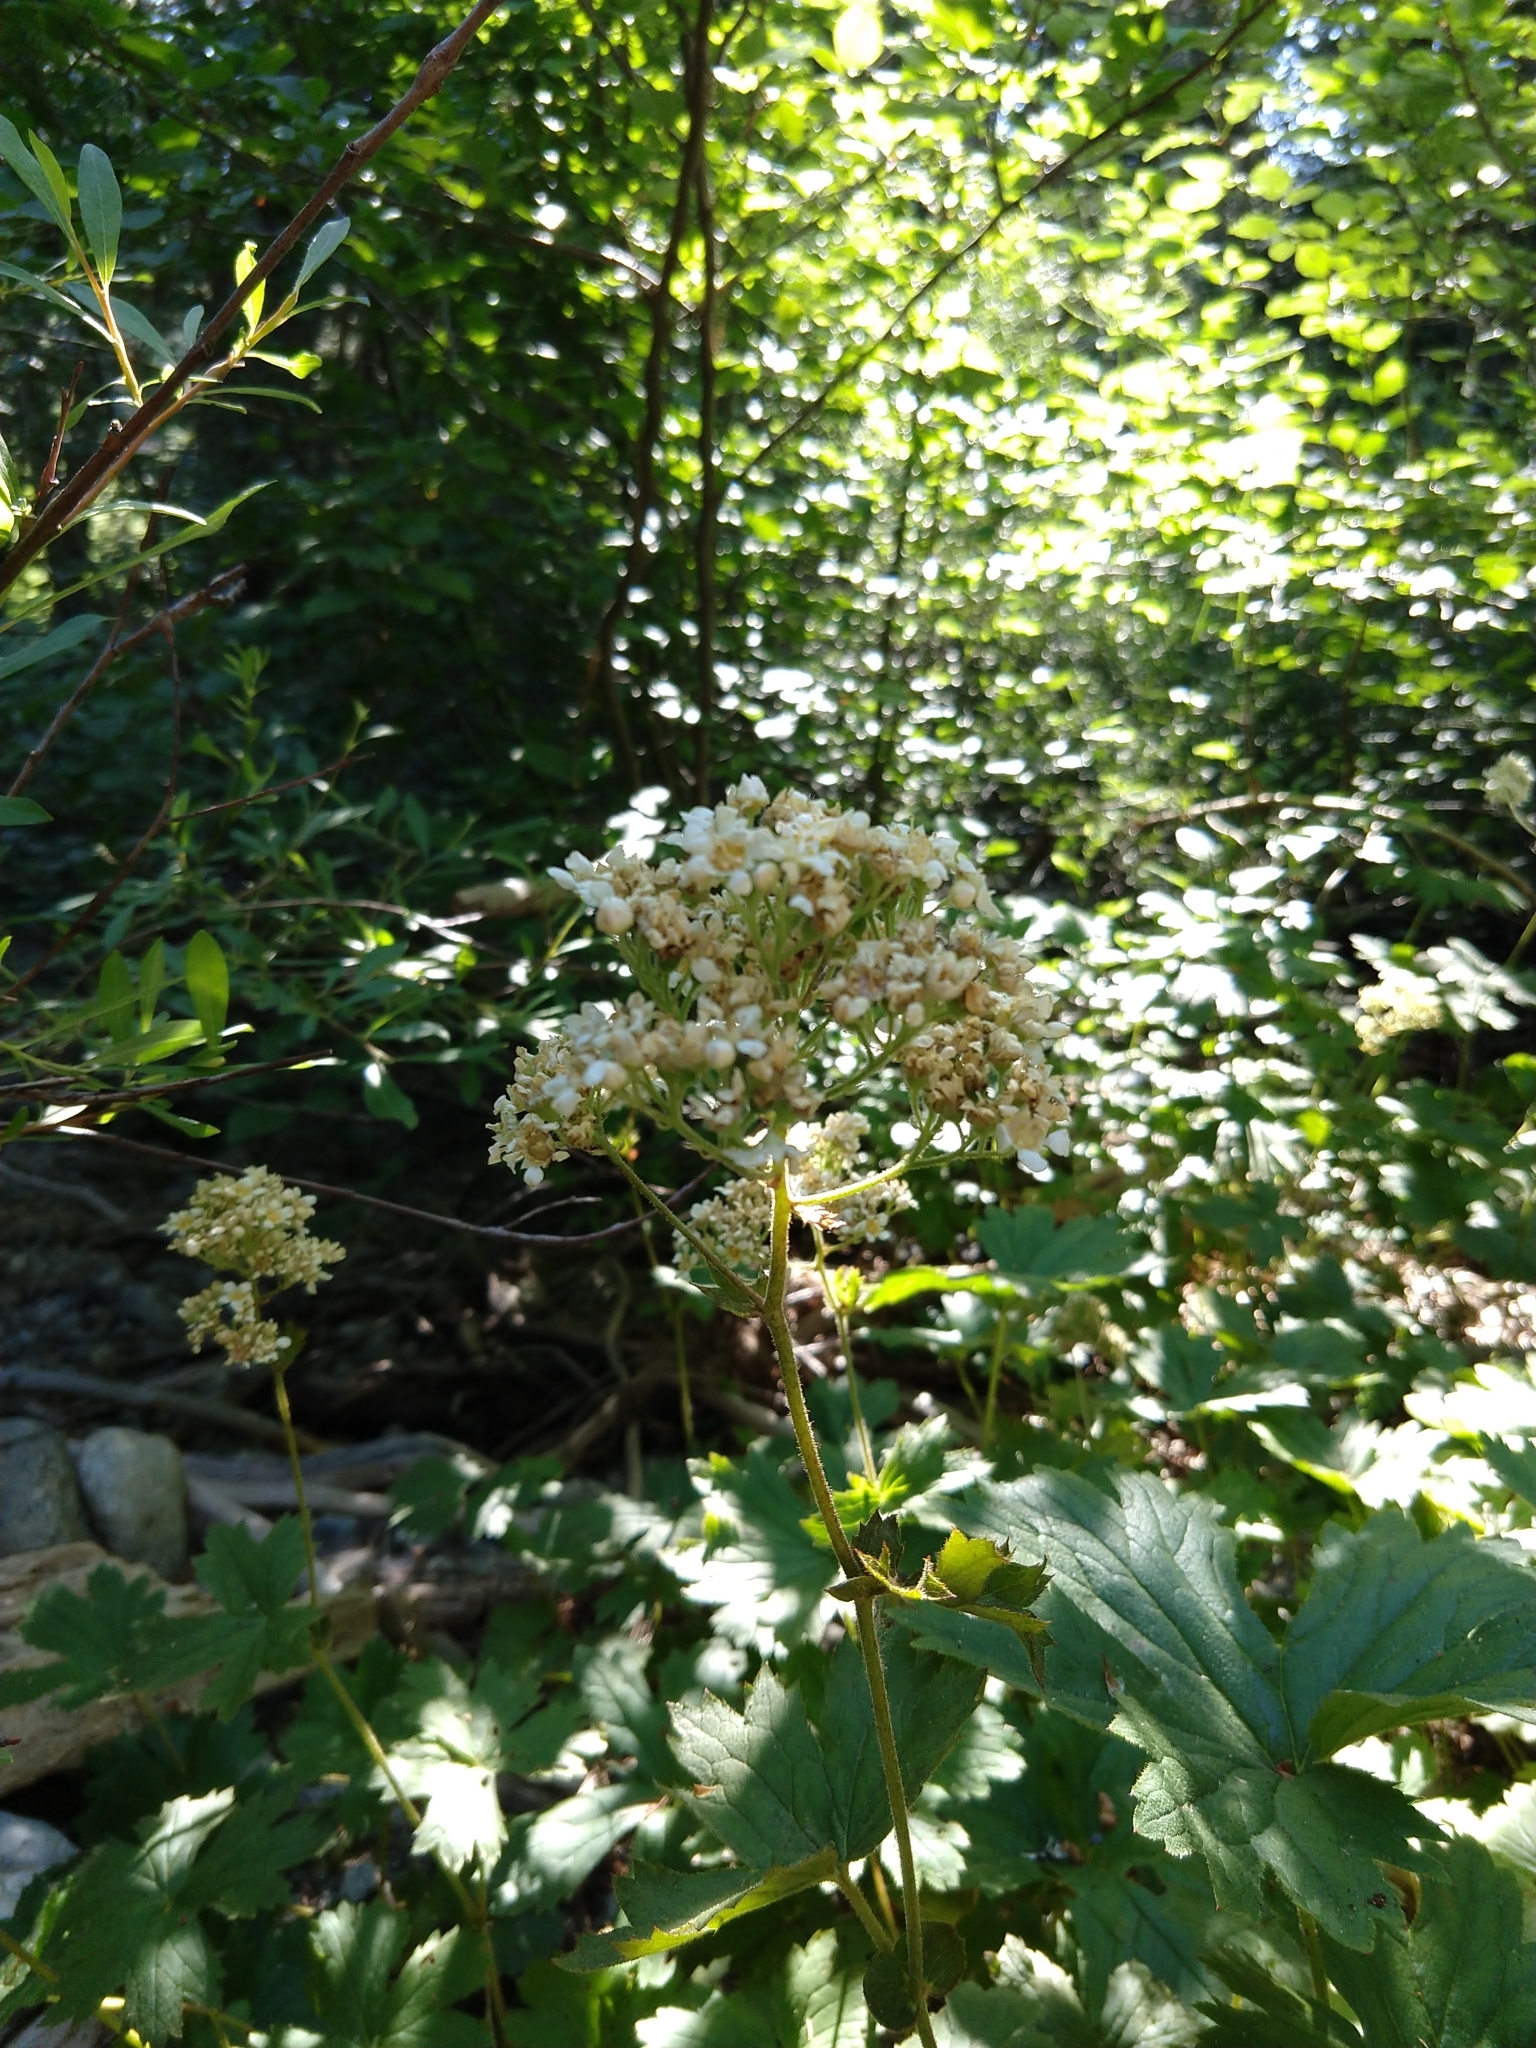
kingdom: Plantae
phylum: Tracheophyta
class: Magnoliopsida
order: Saxifragales
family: Saxifragaceae
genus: Boykinia
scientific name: Boykinia major
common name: Large boykinia
